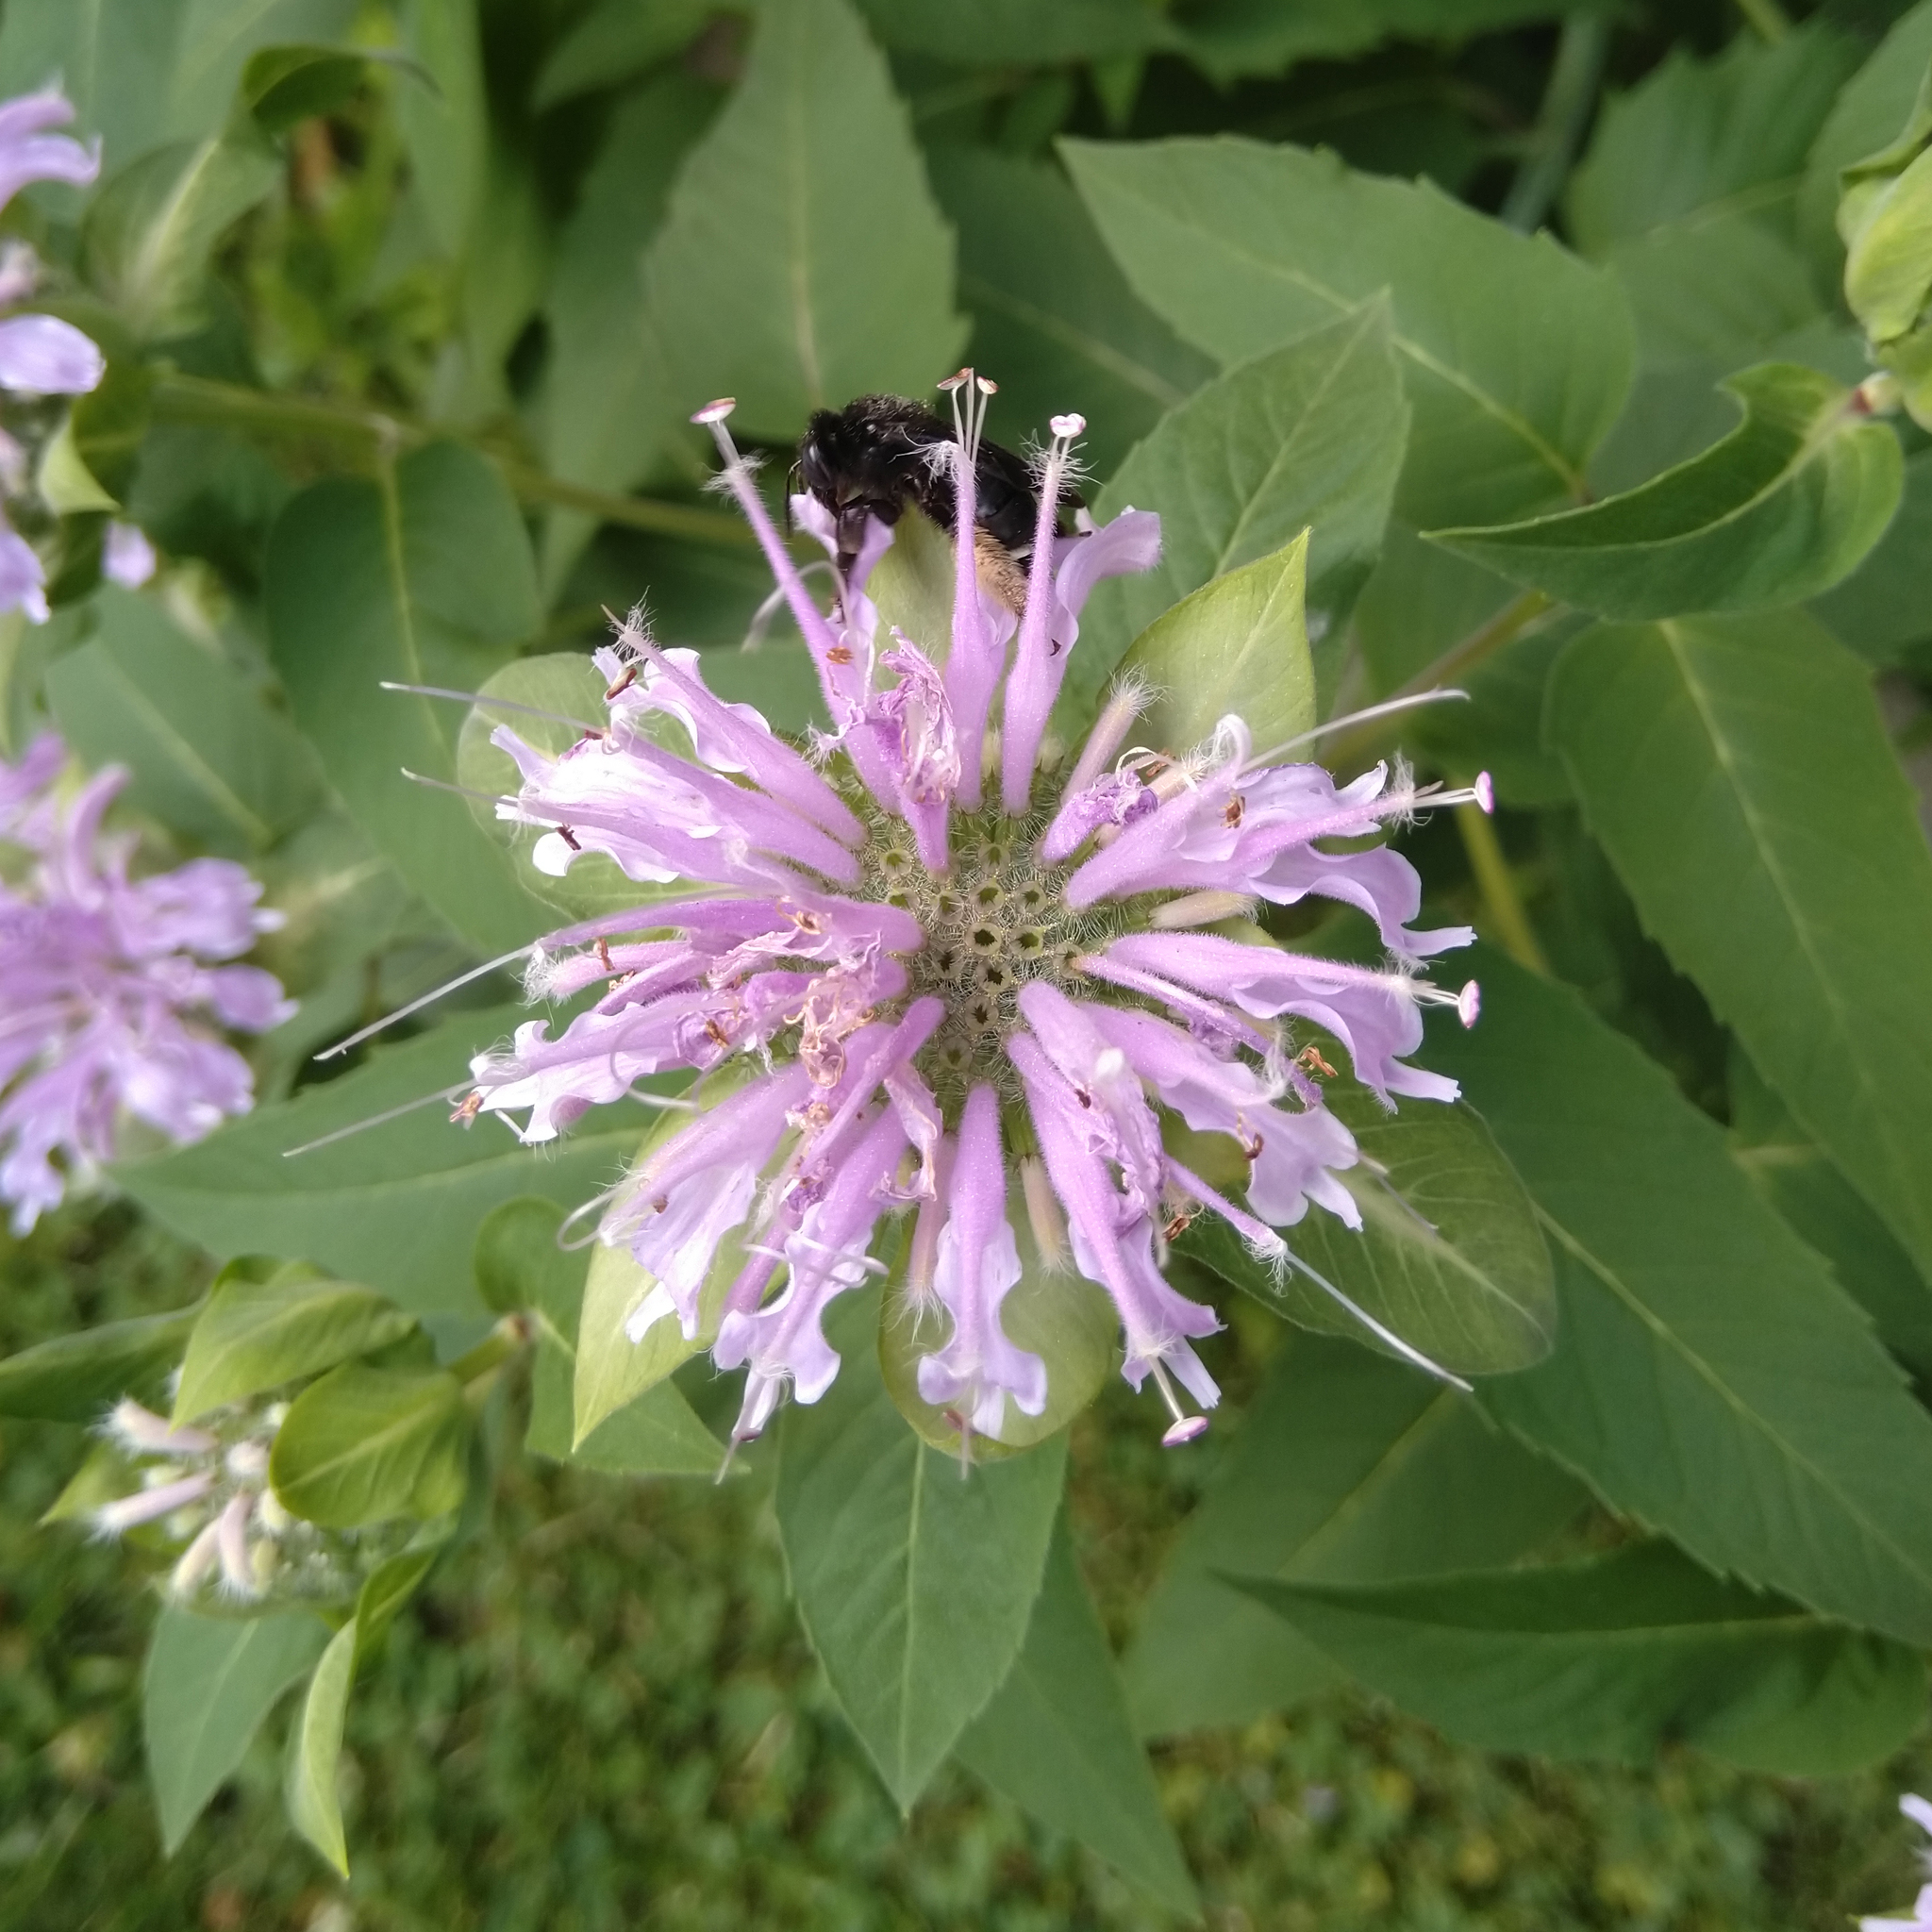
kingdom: Animalia
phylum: Arthropoda
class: Insecta
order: Hymenoptera
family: Apidae
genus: Melissodes
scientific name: Melissodes bimaculatus
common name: Two-spotted long-horned bee
